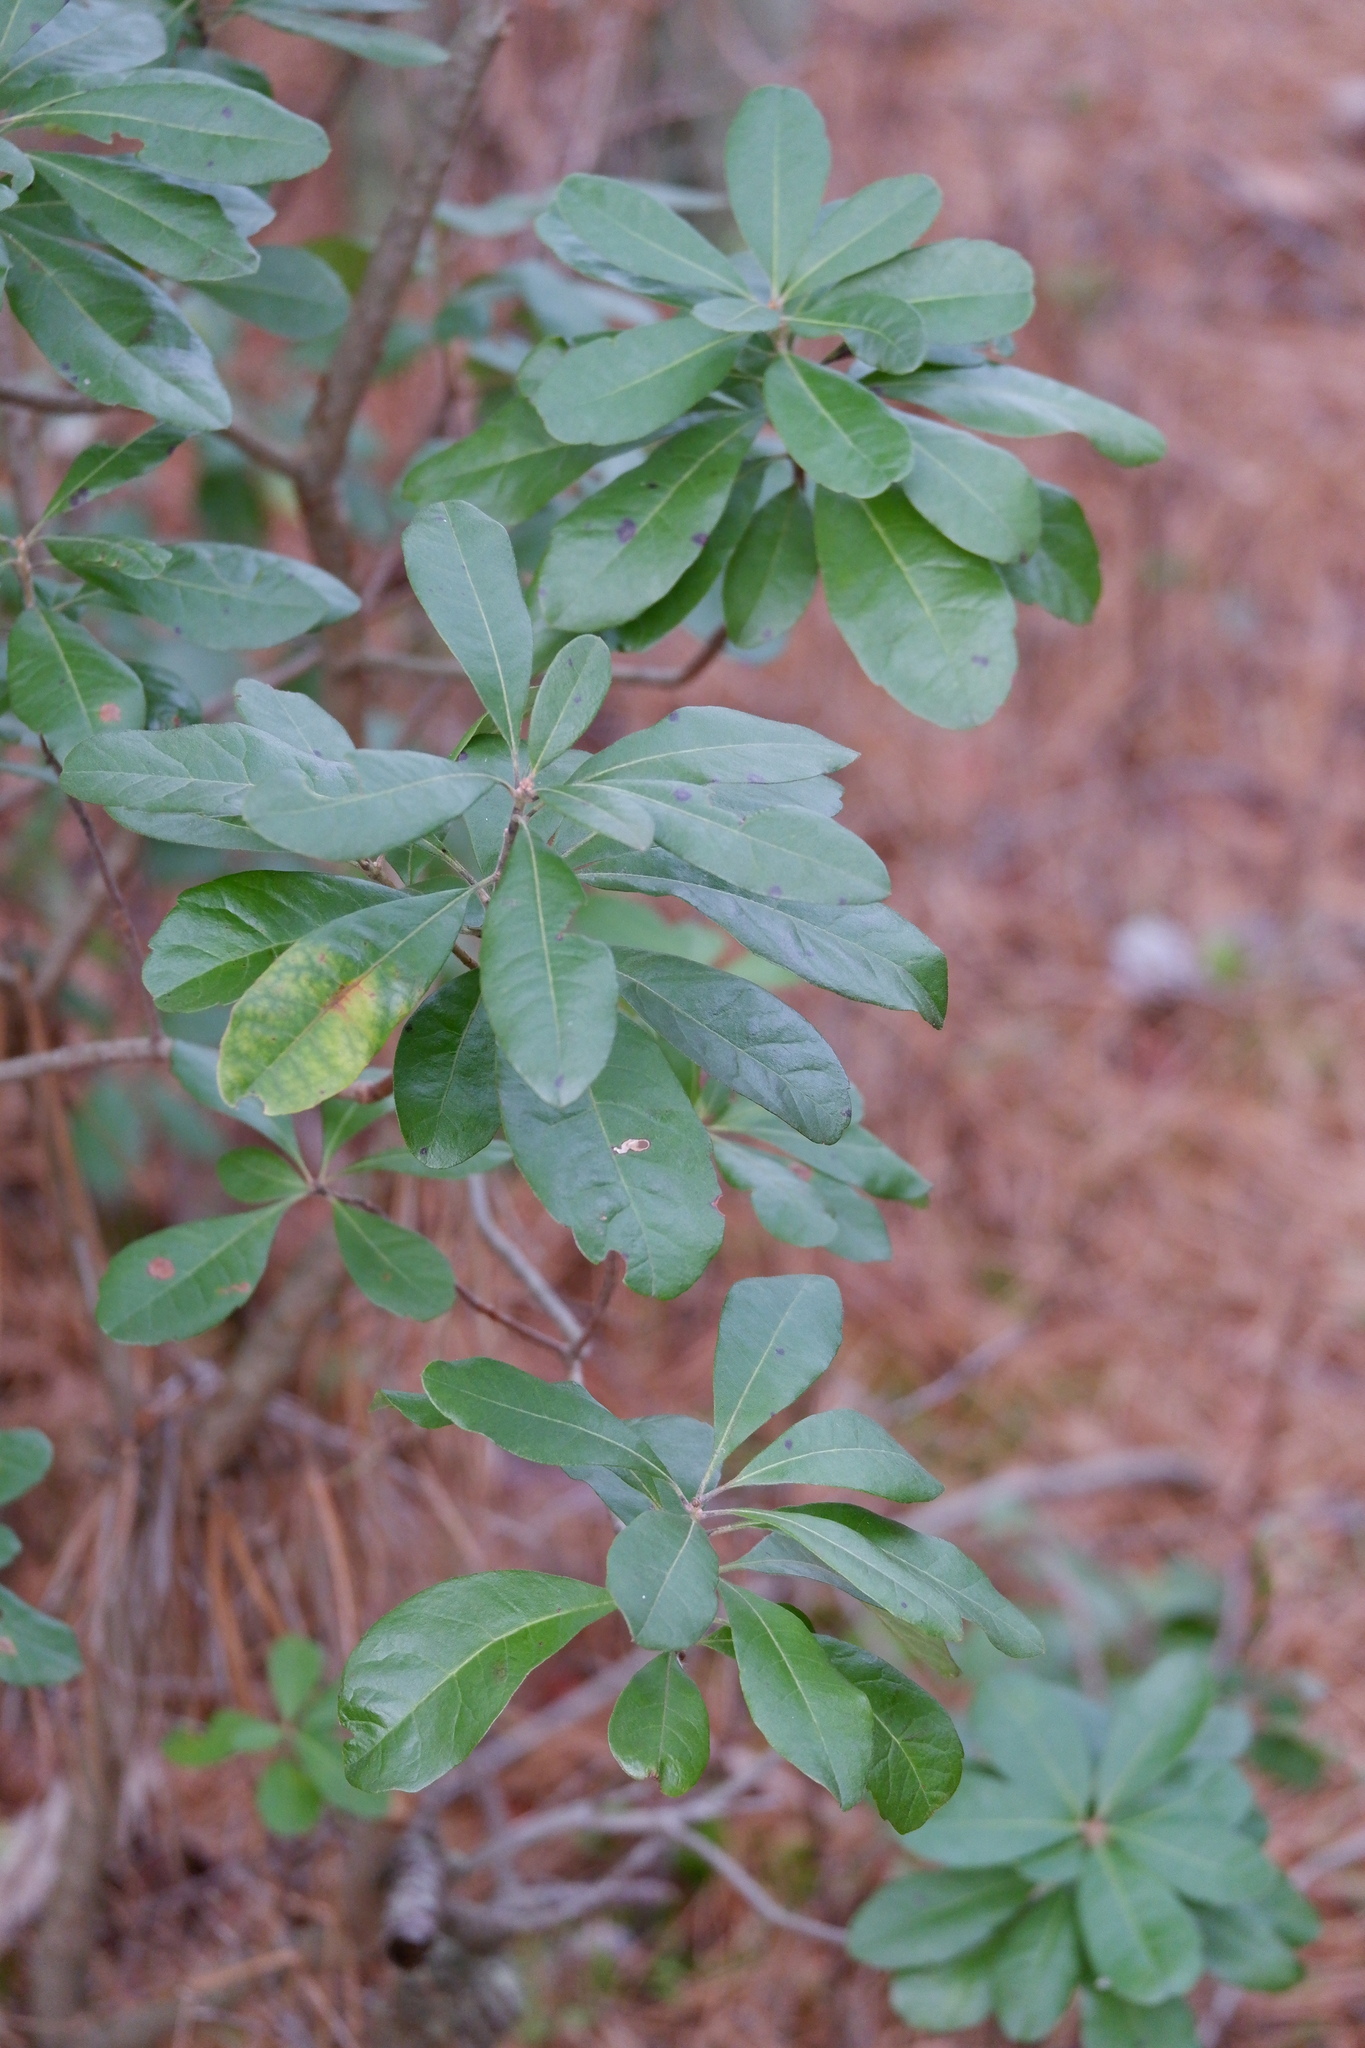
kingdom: Plantae
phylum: Tracheophyta
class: Magnoliopsida
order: Fagales
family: Myricaceae
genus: Morella
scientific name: Morella caroliniensis
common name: Evergreen bayberry
